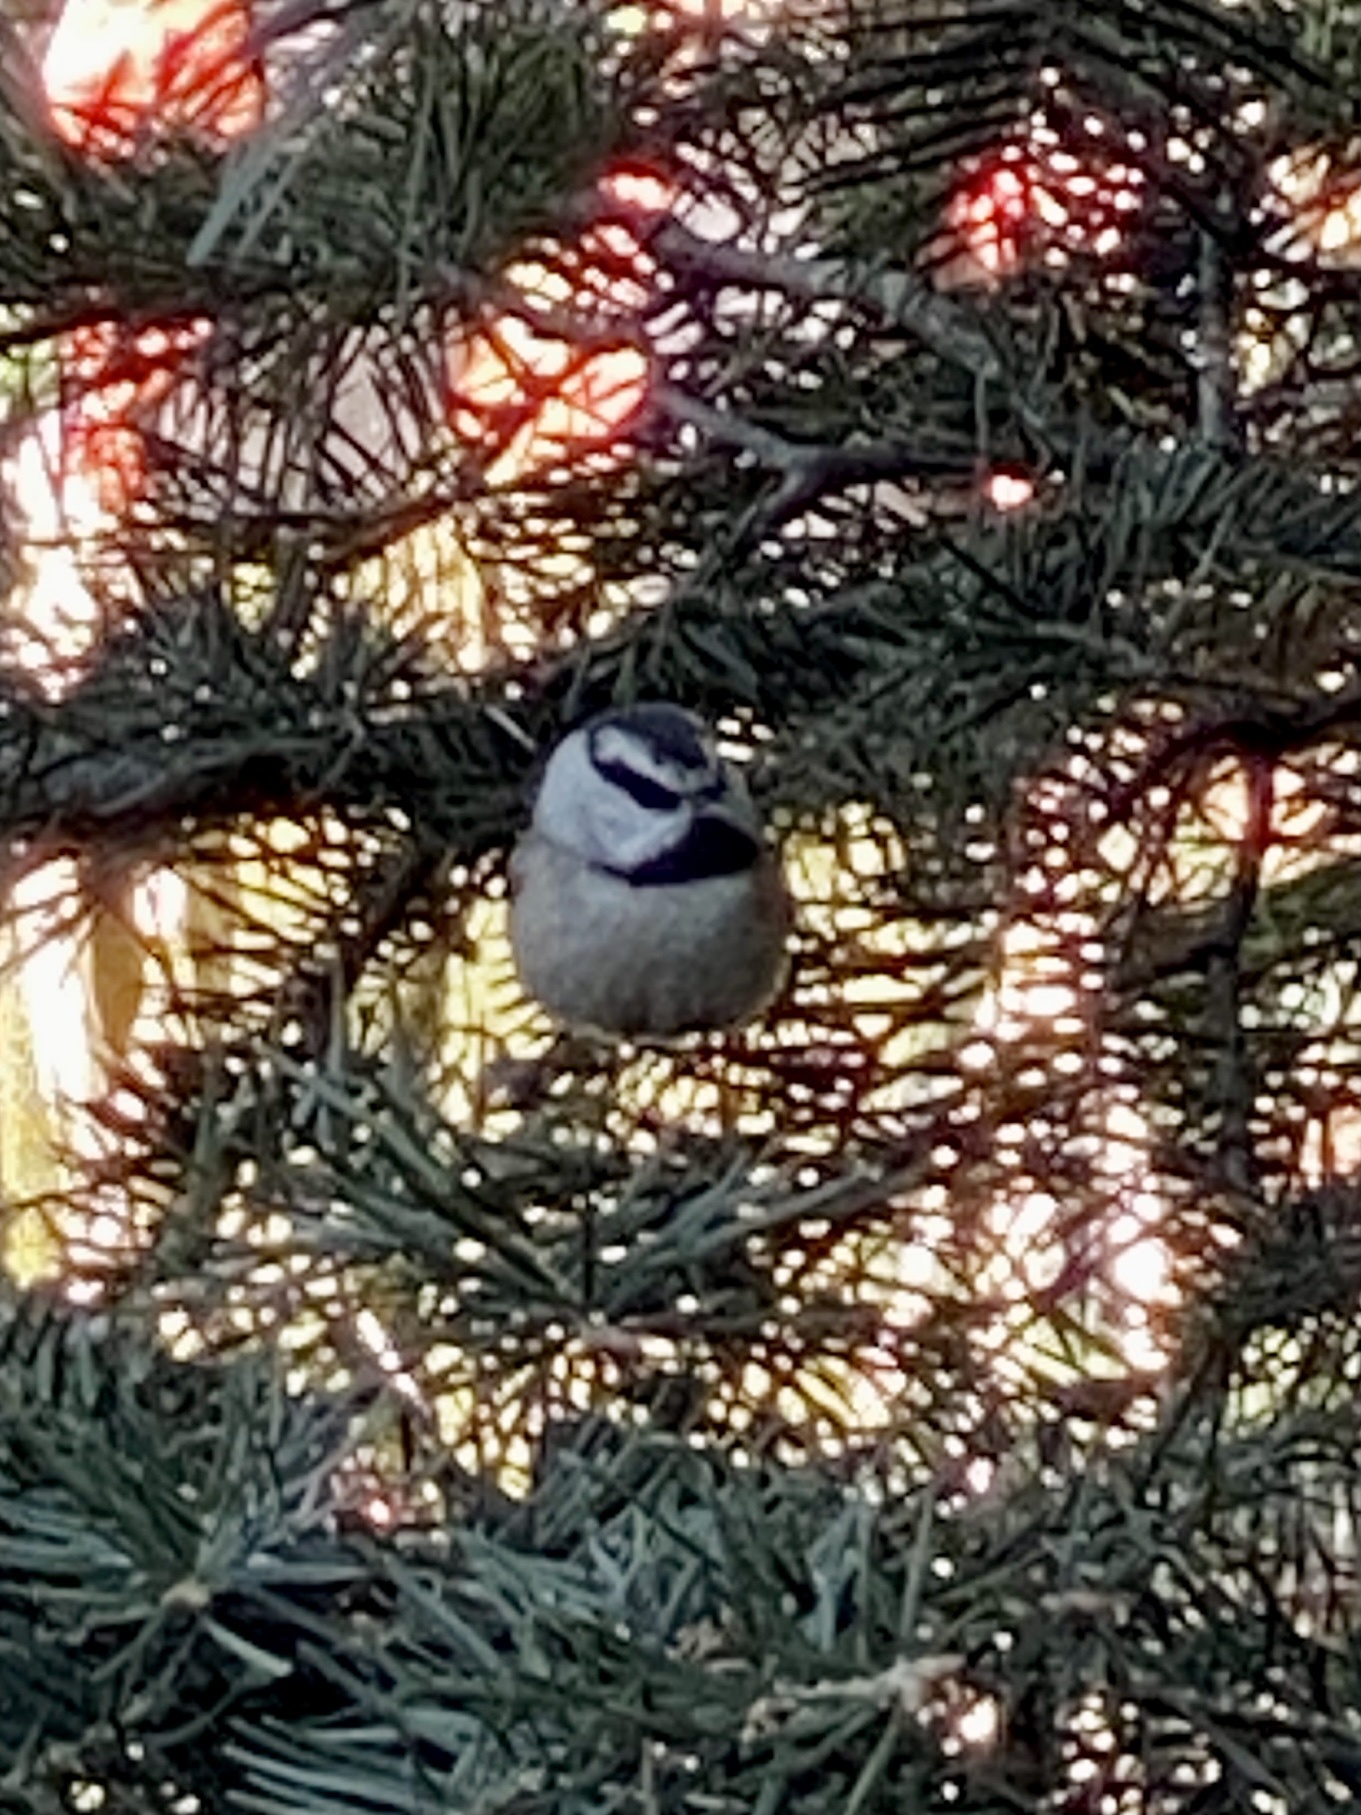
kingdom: Animalia
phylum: Chordata
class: Aves
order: Passeriformes
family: Paridae
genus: Poecile
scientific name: Poecile gambeli
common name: Mountain chickadee
